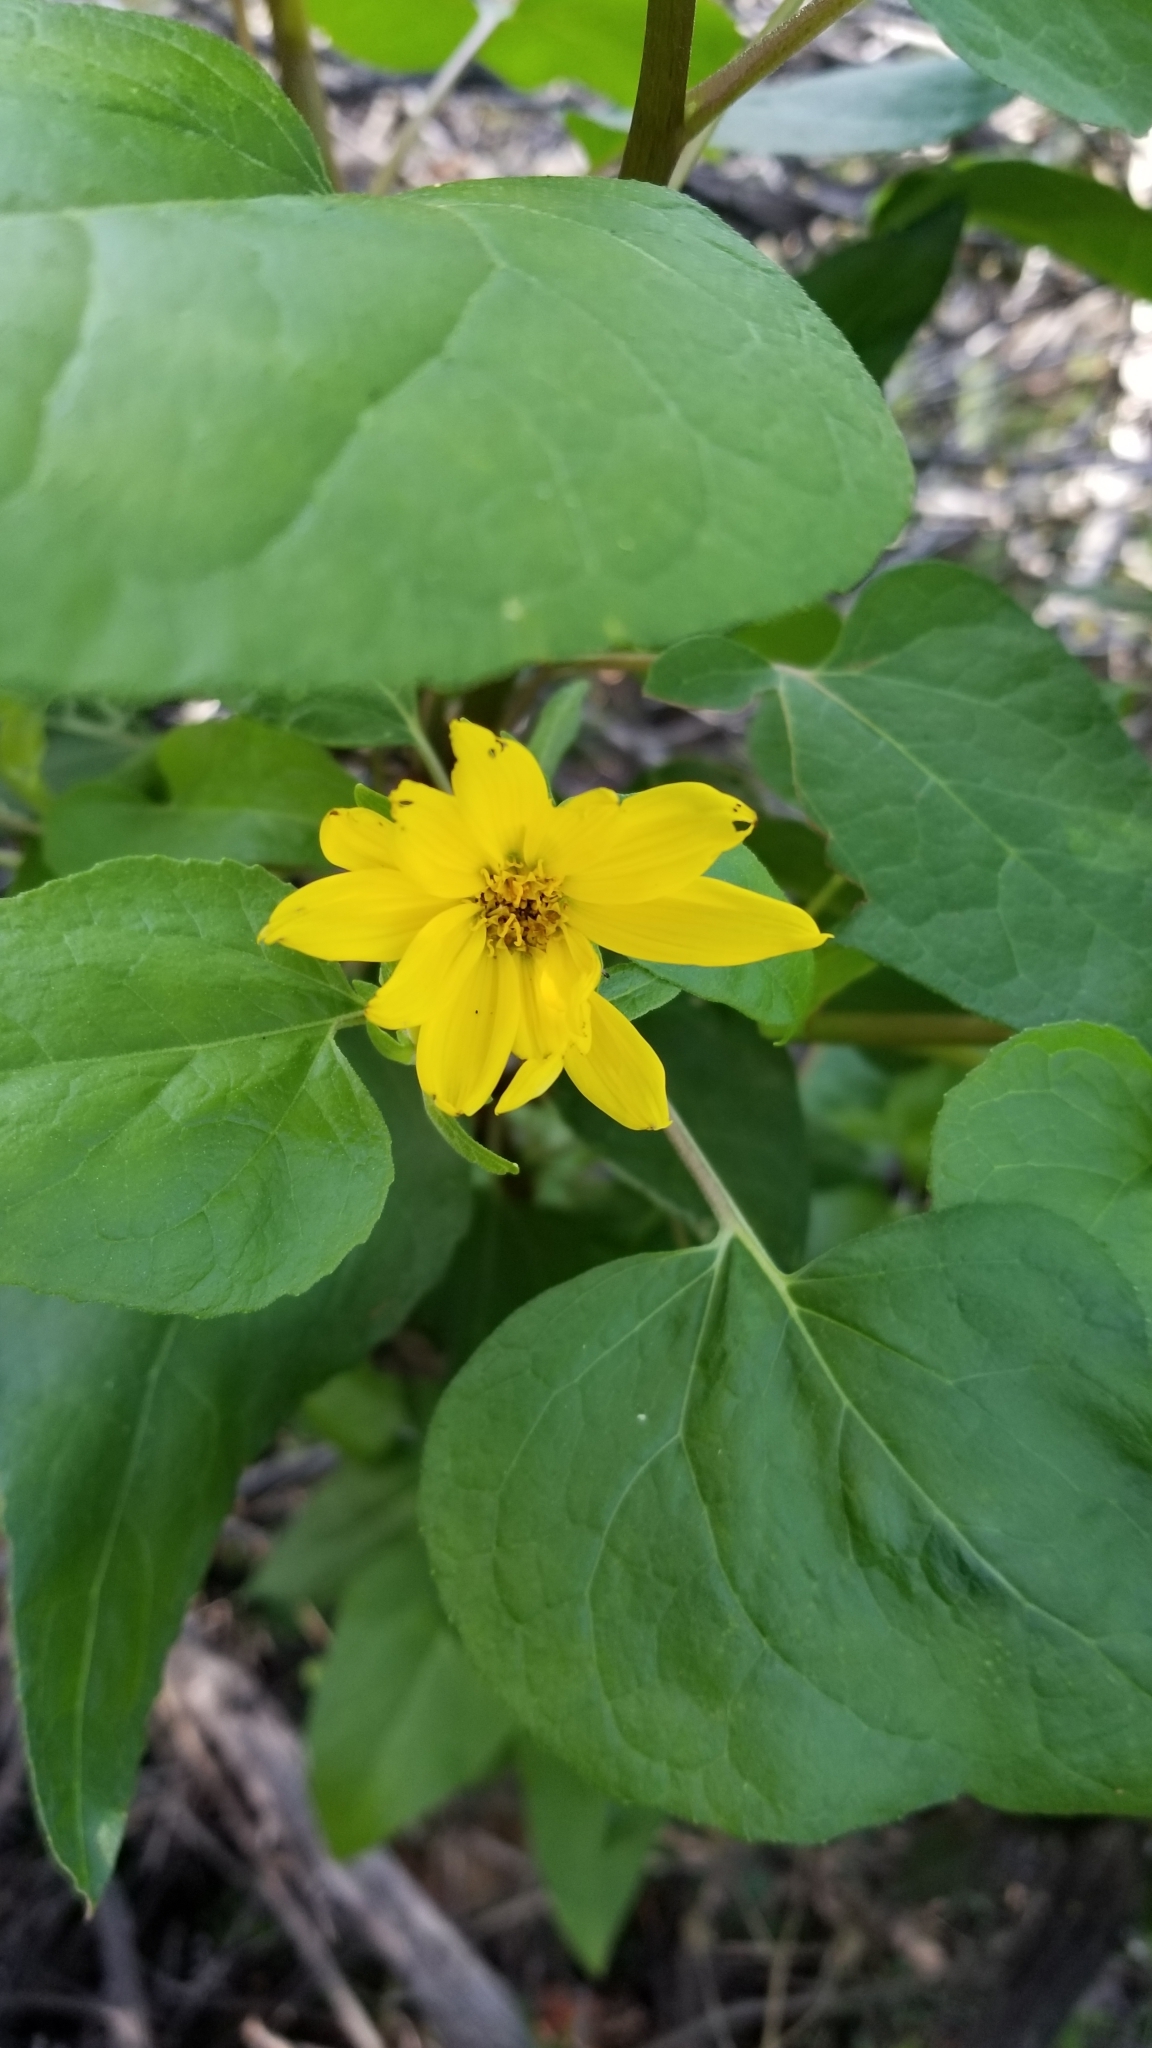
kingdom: Plantae
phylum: Tracheophyta
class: Magnoliopsida
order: Asterales
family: Asteraceae
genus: Venegasia
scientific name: Venegasia carpesioides
